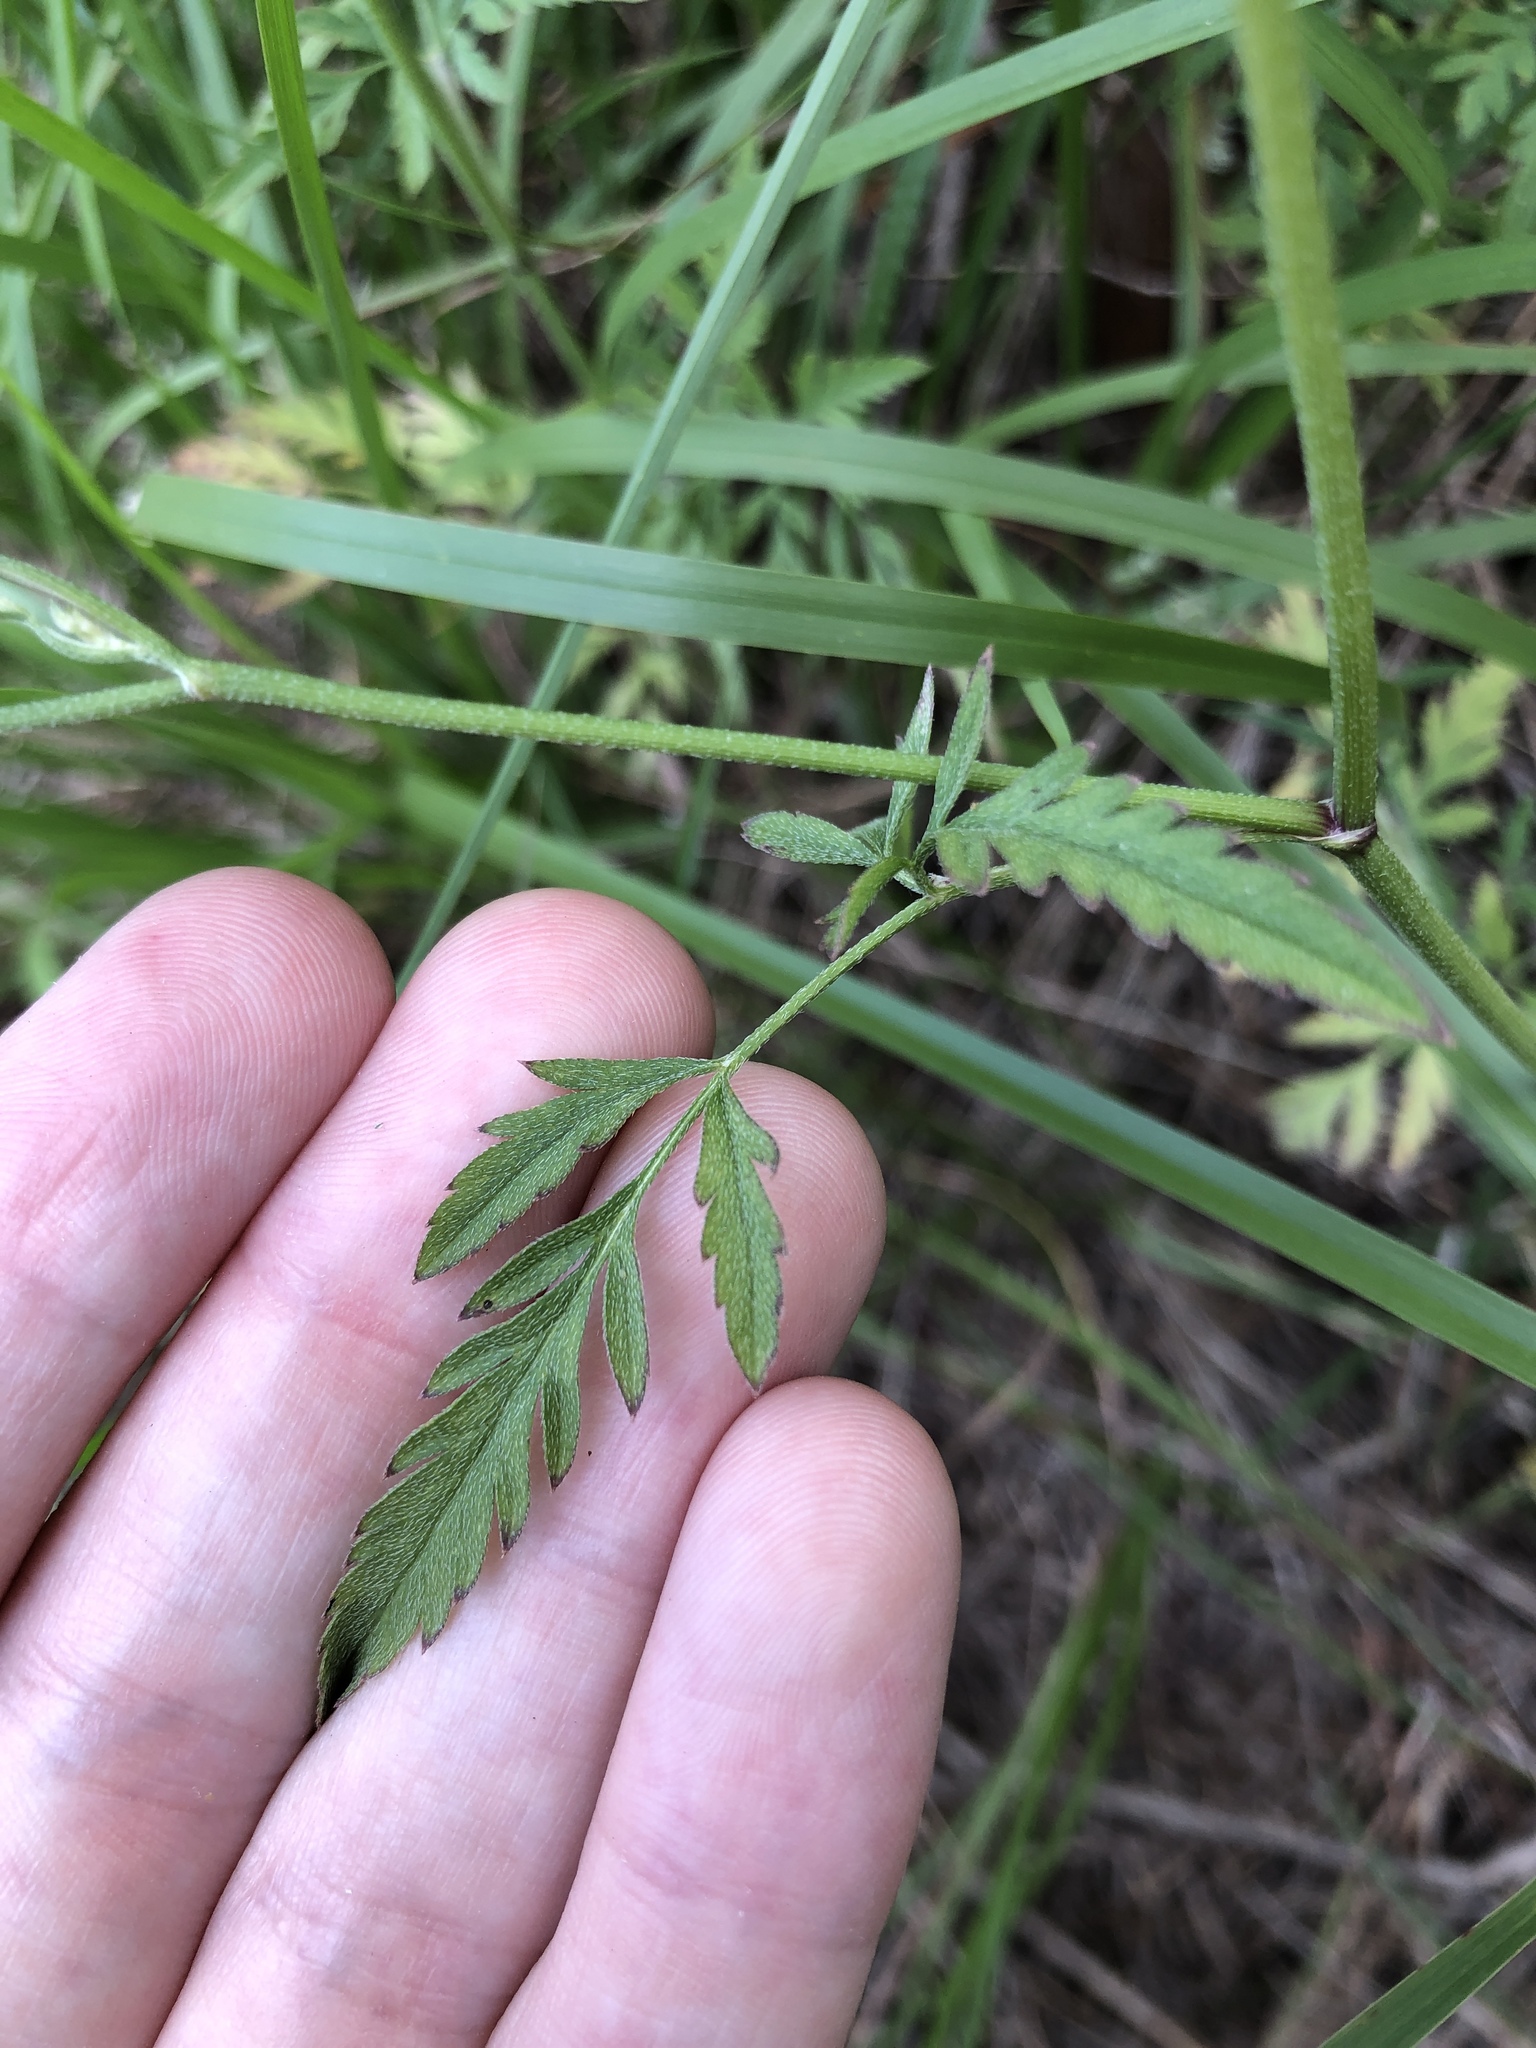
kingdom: Plantae
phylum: Tracheophyta
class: Magnoliopsida
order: Apiales
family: Apiaceae
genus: Torilis
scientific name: Torilis arvensis
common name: Spreading hedge-parsley
